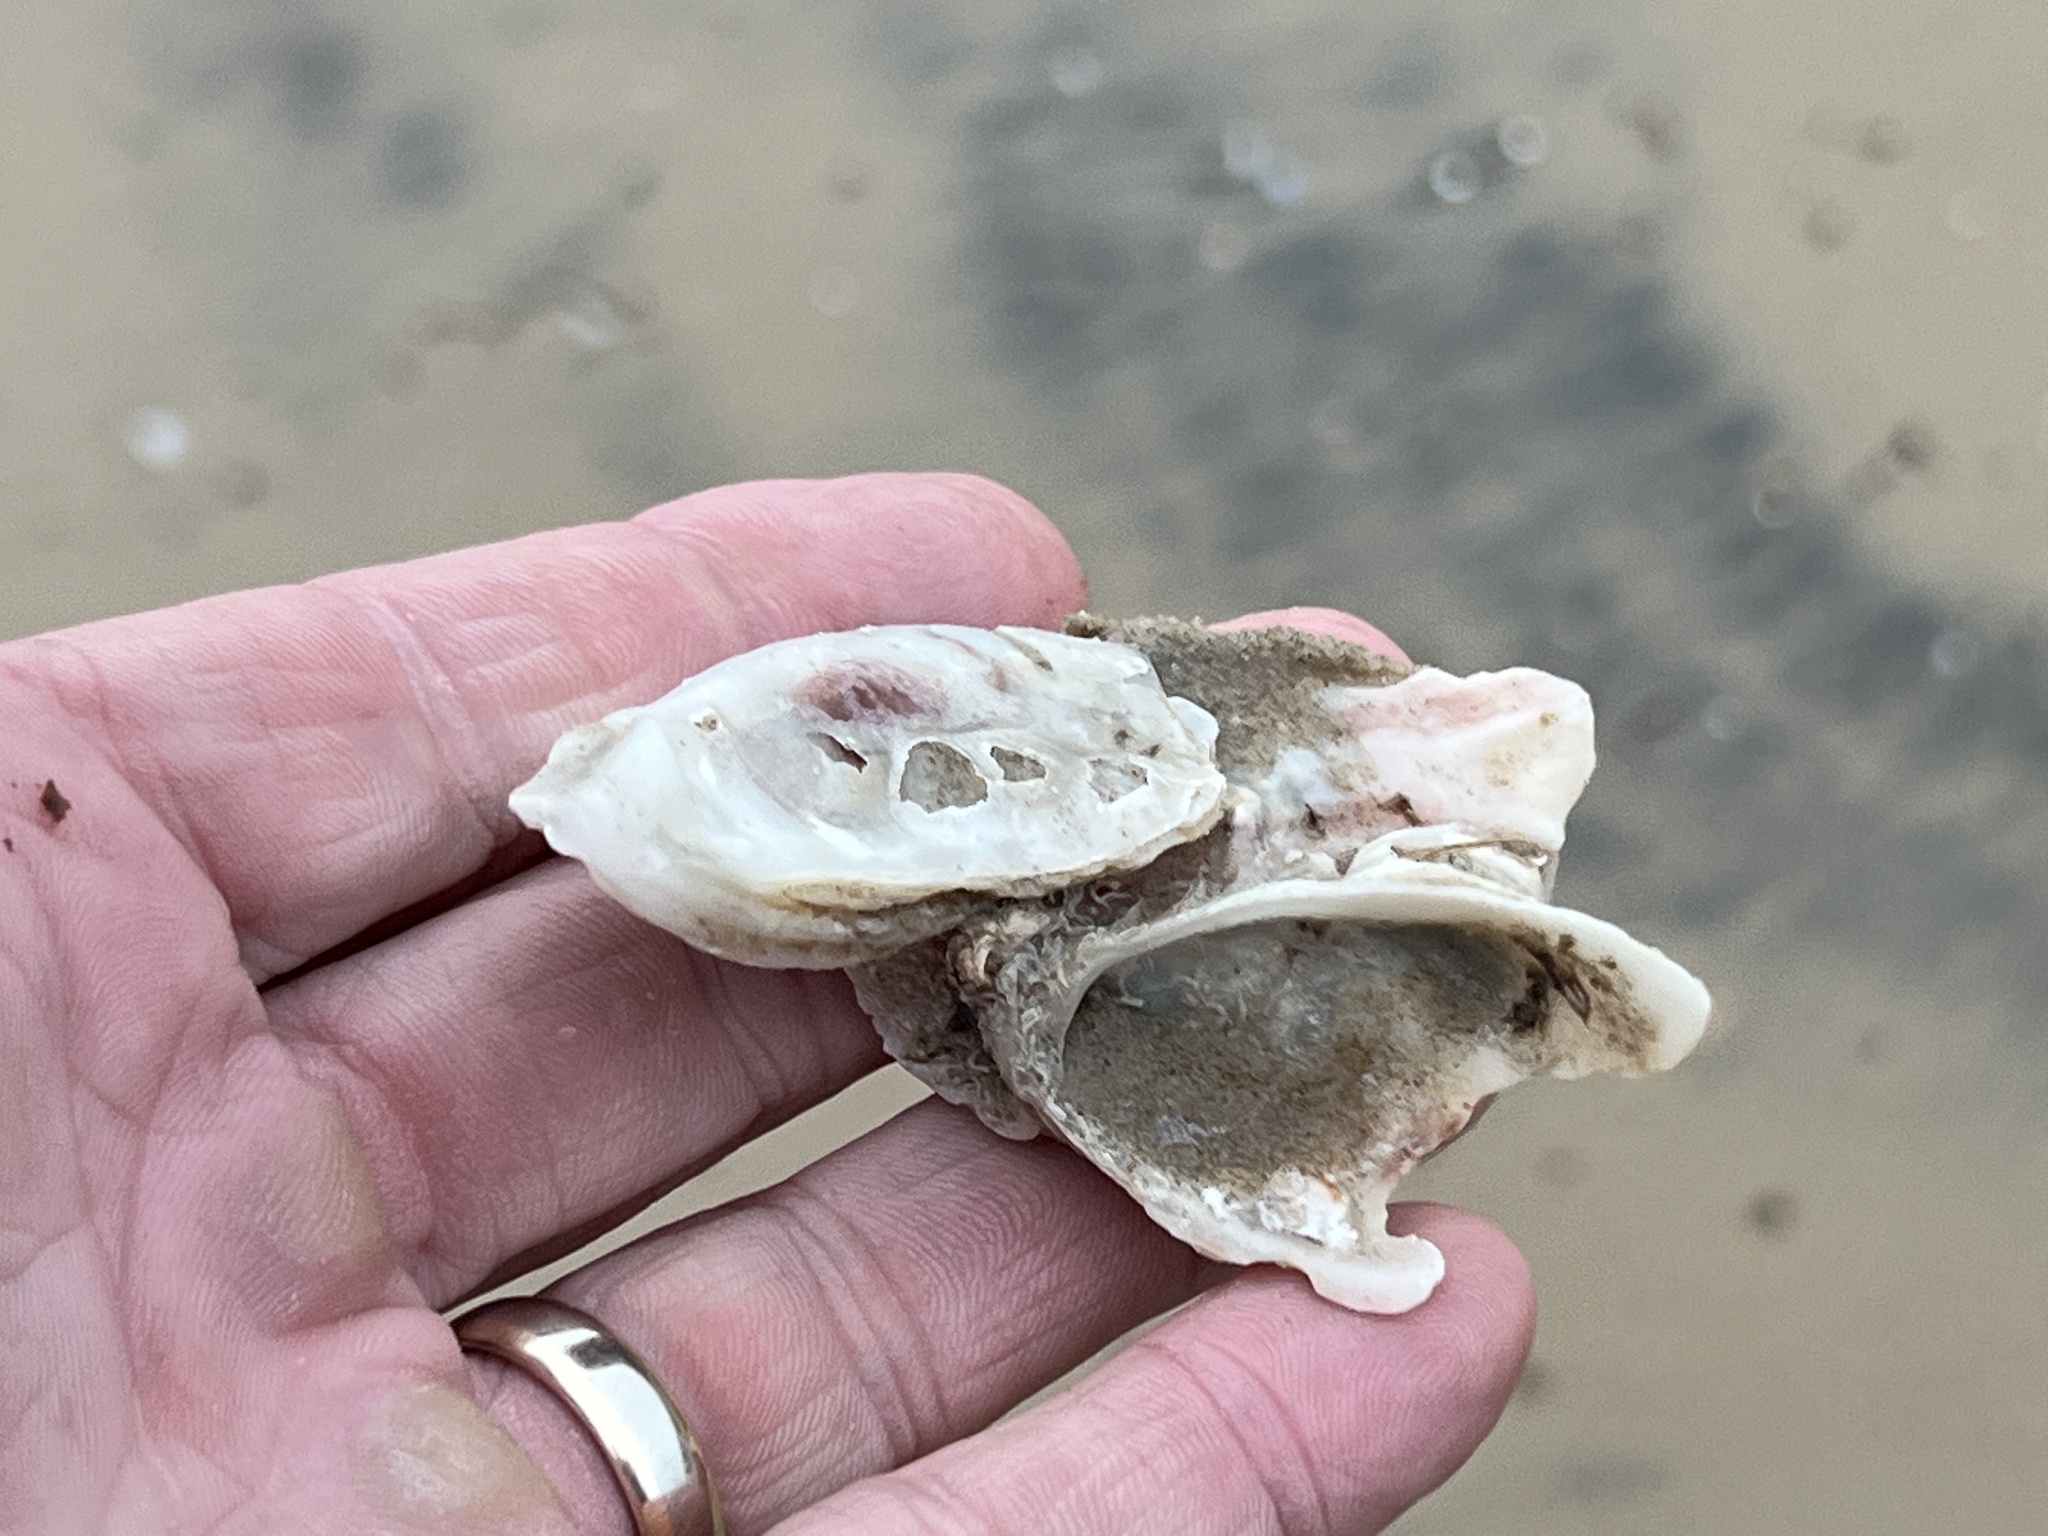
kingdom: Animalia
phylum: Mollusca
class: Bivalvia
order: Ostreida
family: Ostreidae
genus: Crassostrea
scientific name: Crassostrea virginica
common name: American oyster
